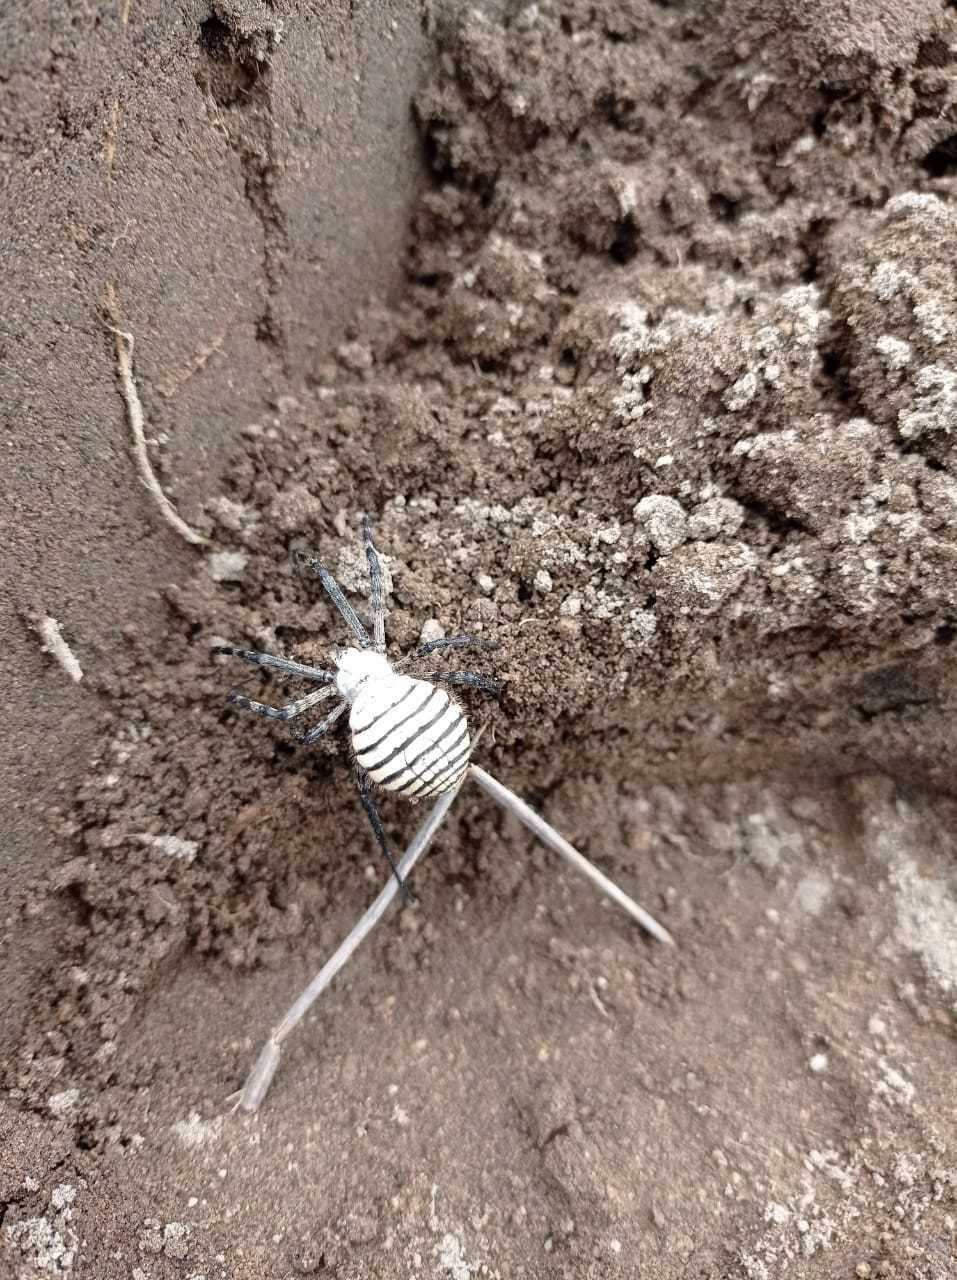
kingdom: Animalia
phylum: Arthropoda
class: Arachnida
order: Araneae
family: Araneidae
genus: Argiope
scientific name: Argiope trifasciata
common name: Banded garden spider
